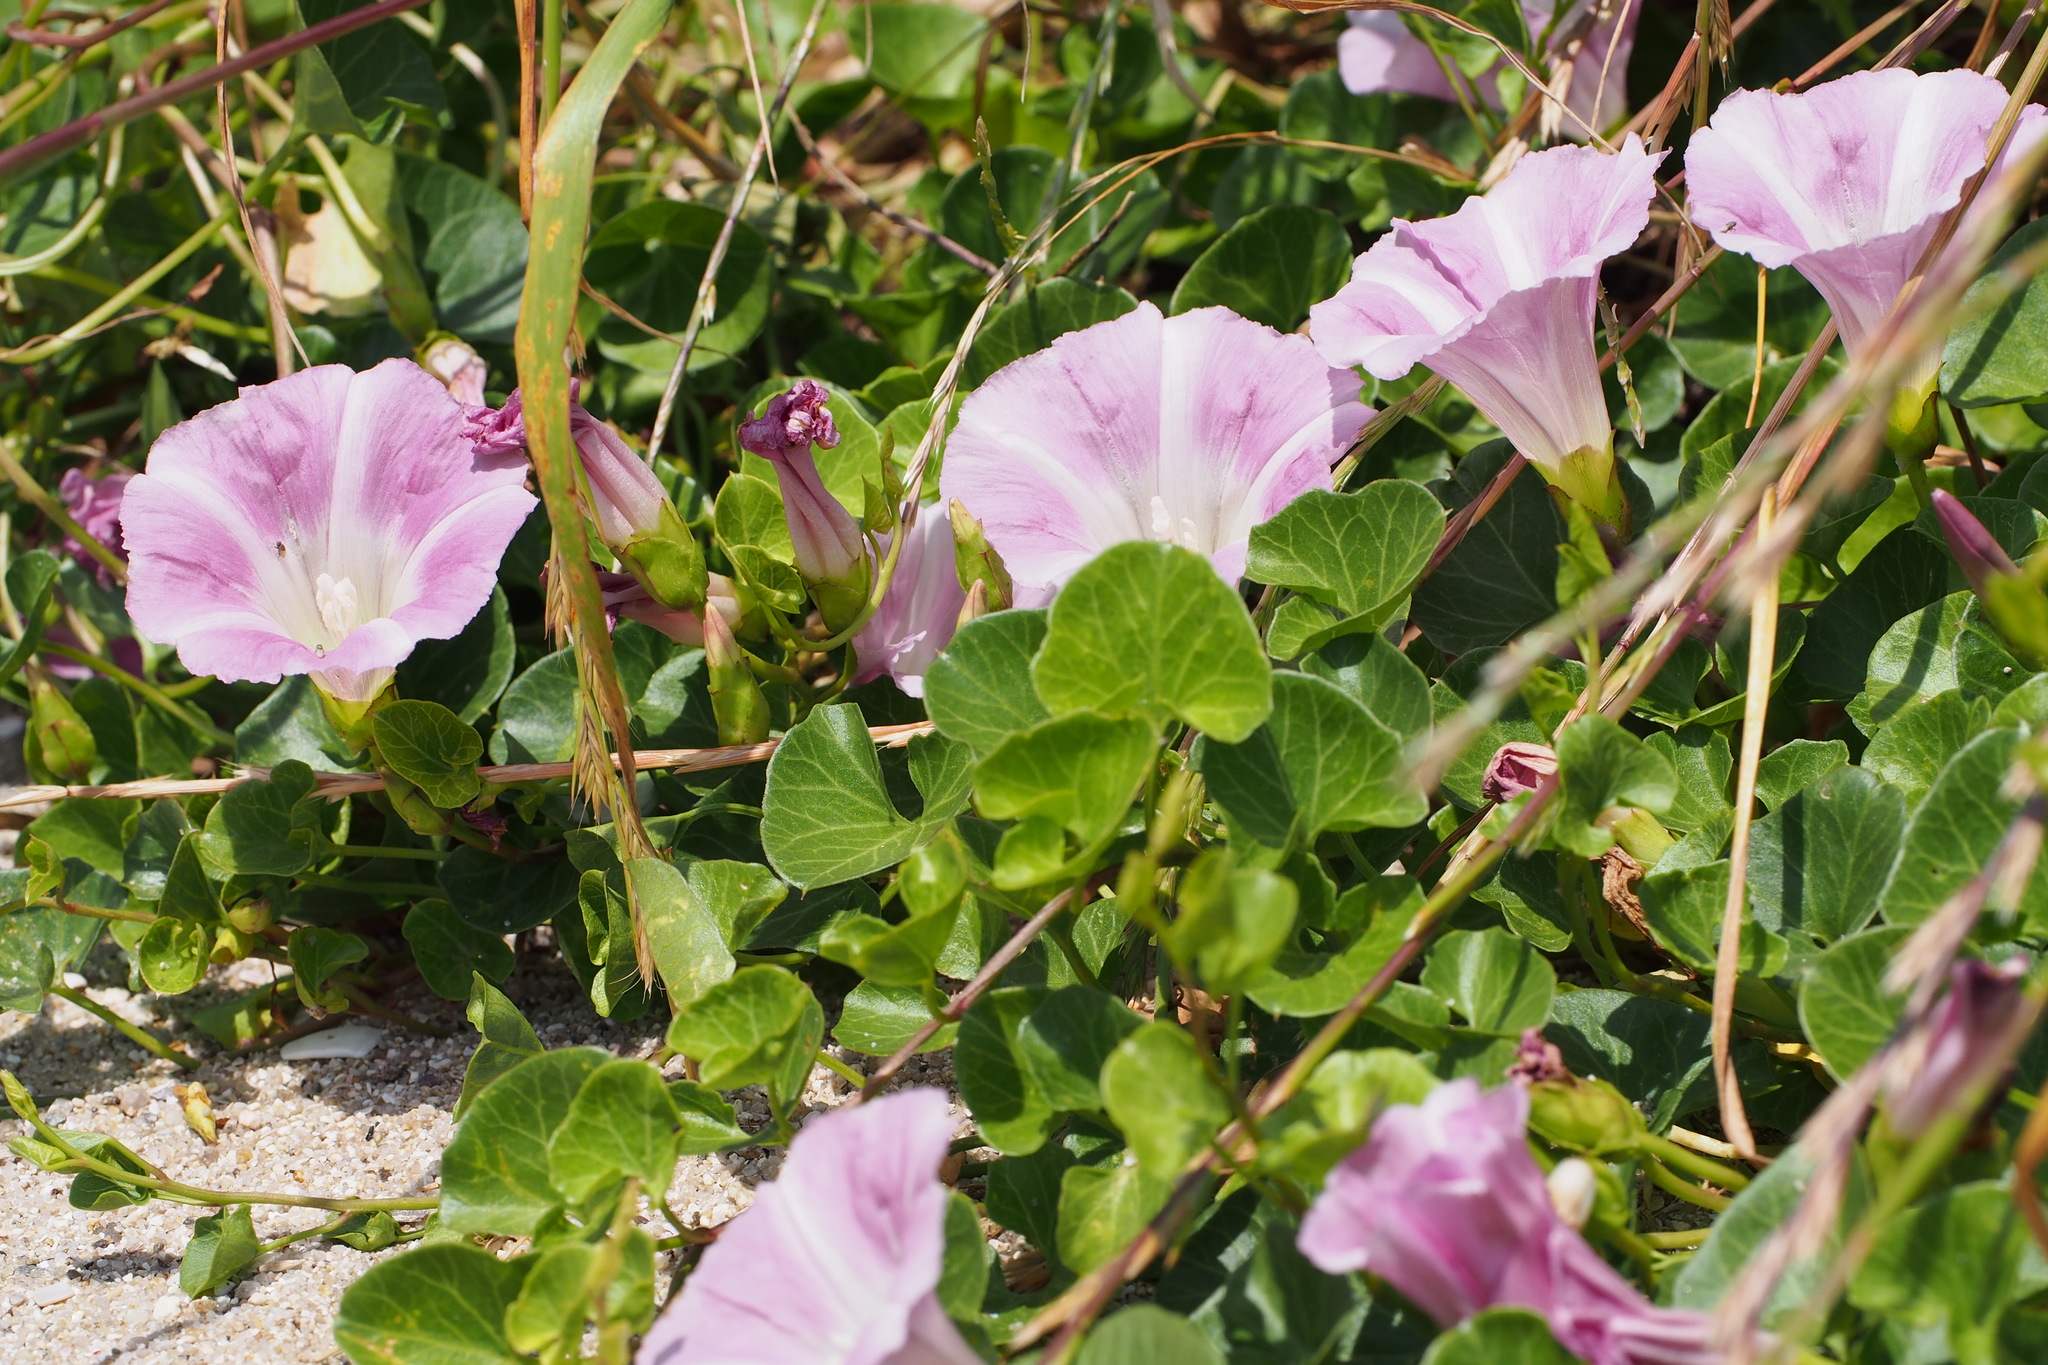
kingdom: Plantae
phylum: Tracheophyta
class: Magnoliopsida
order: Solanales
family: Convolvulaceae
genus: Calystegia
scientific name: Calystegia soldanella
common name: Sea bindweed
